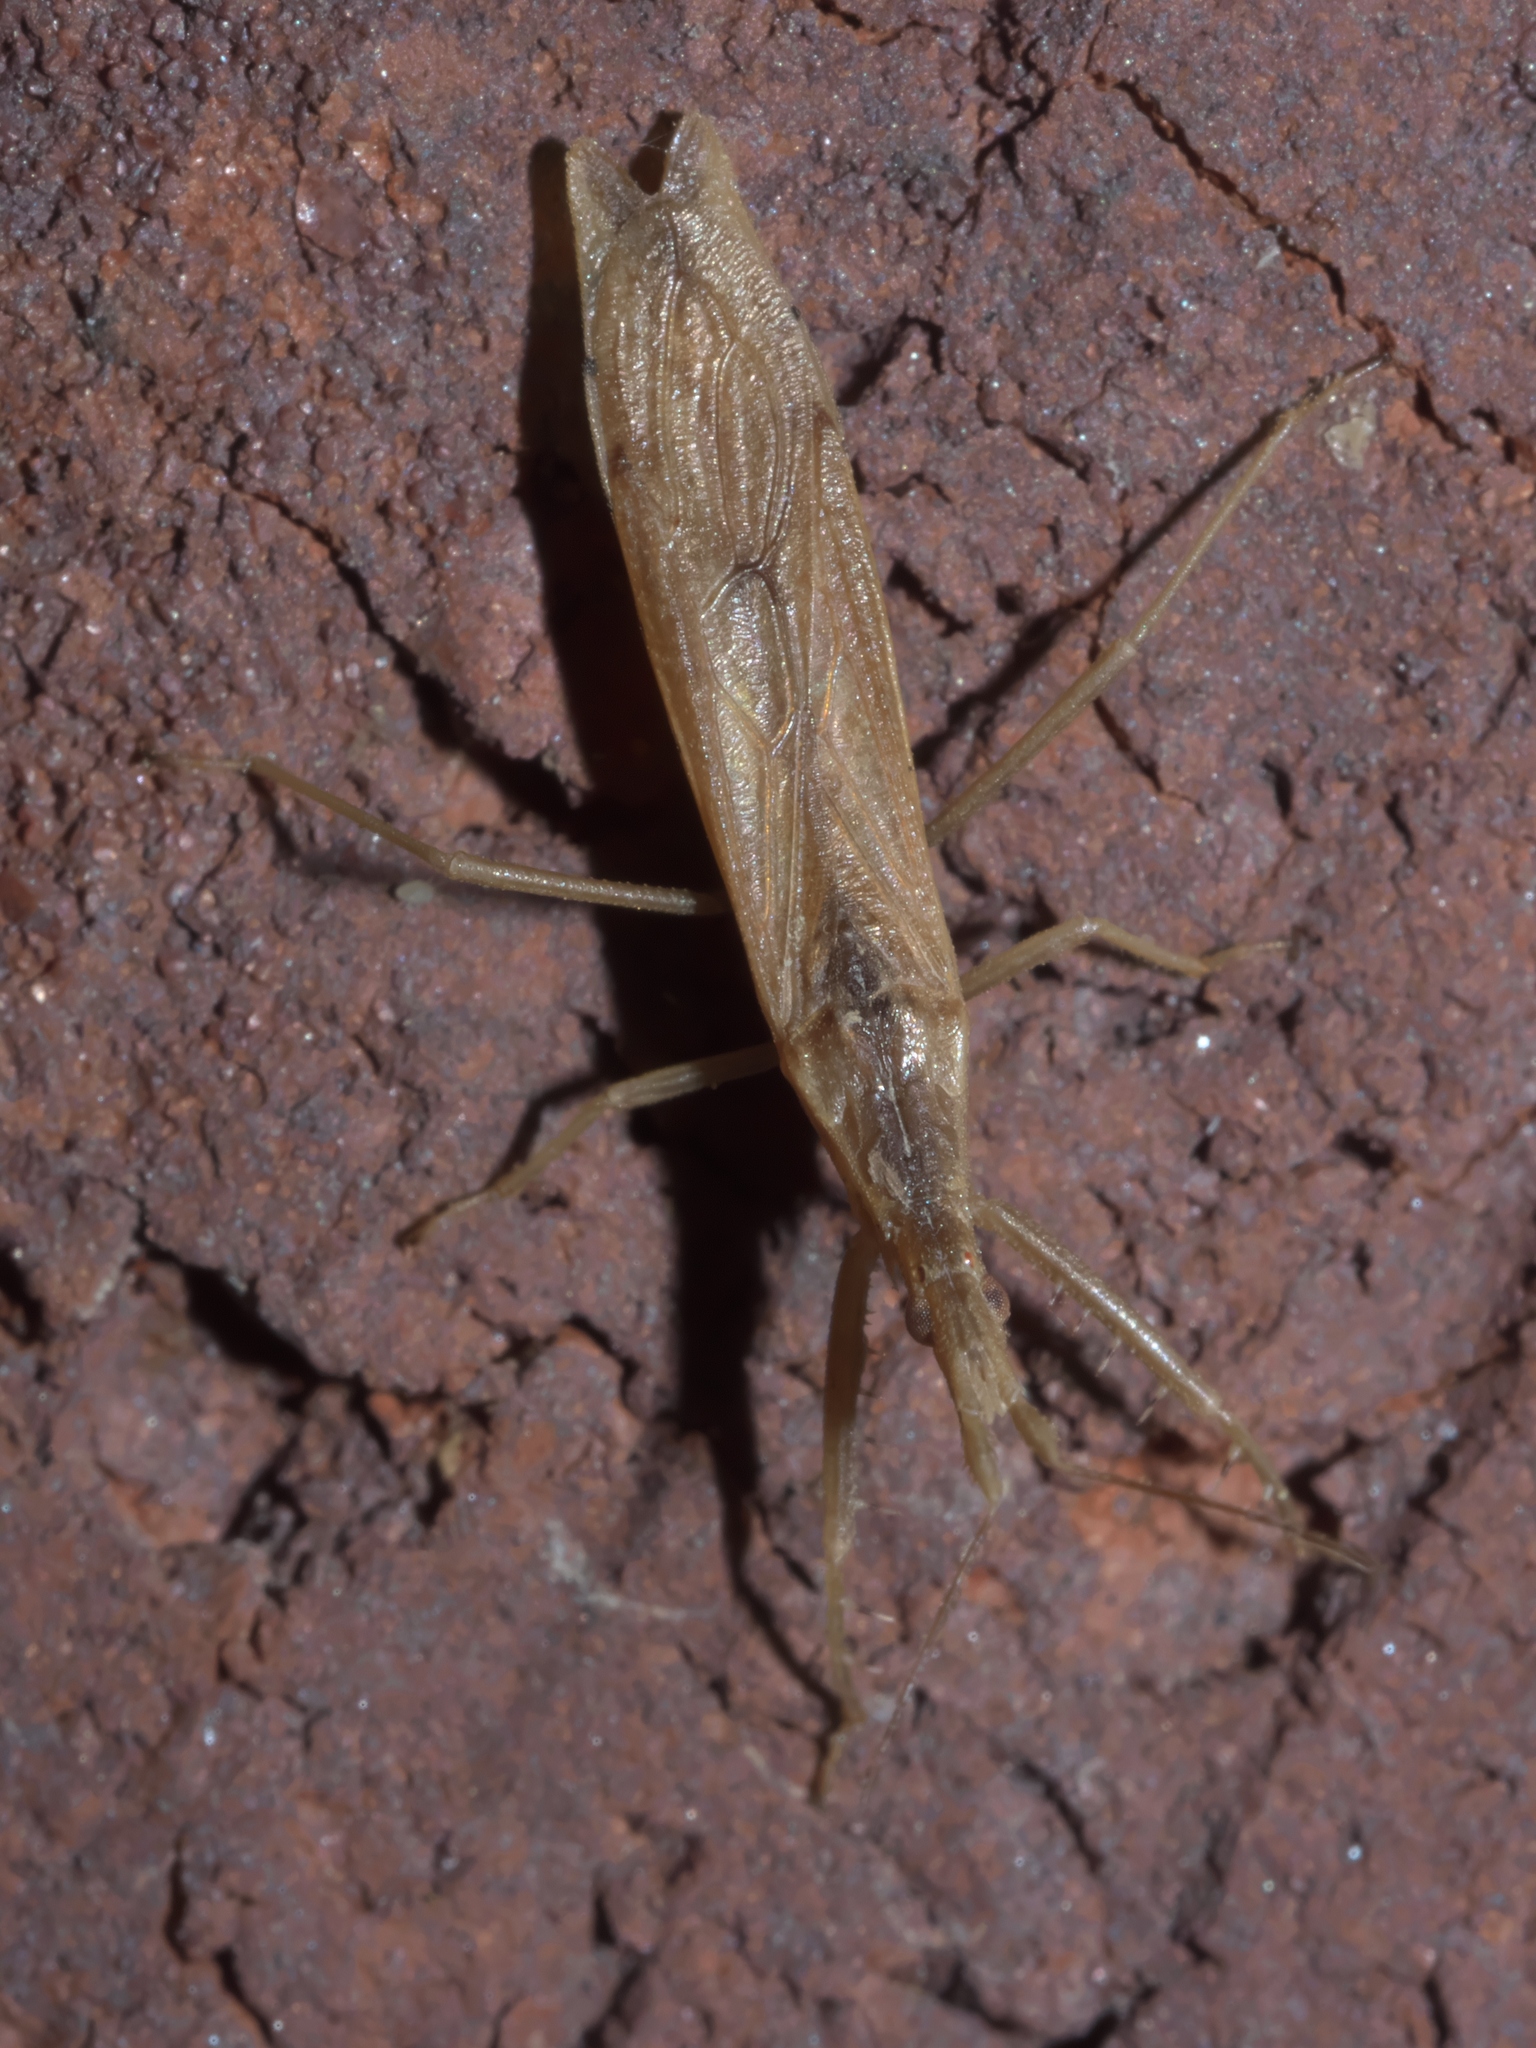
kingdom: Animalia
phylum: Arthropoda
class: Insecta
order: Hemiptera
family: Reduviidae
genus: Pnirontis
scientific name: Pnirontis modesta
